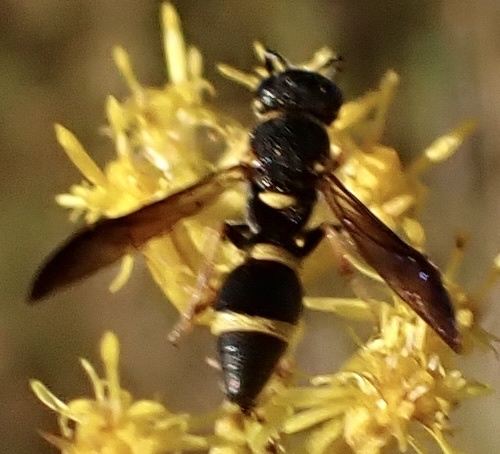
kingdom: Animalia
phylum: Arthropoda
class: Insecta
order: Hymenoptera
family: Eumenidae
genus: Parancistrocerus
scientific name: Parancistrocerus perennis
